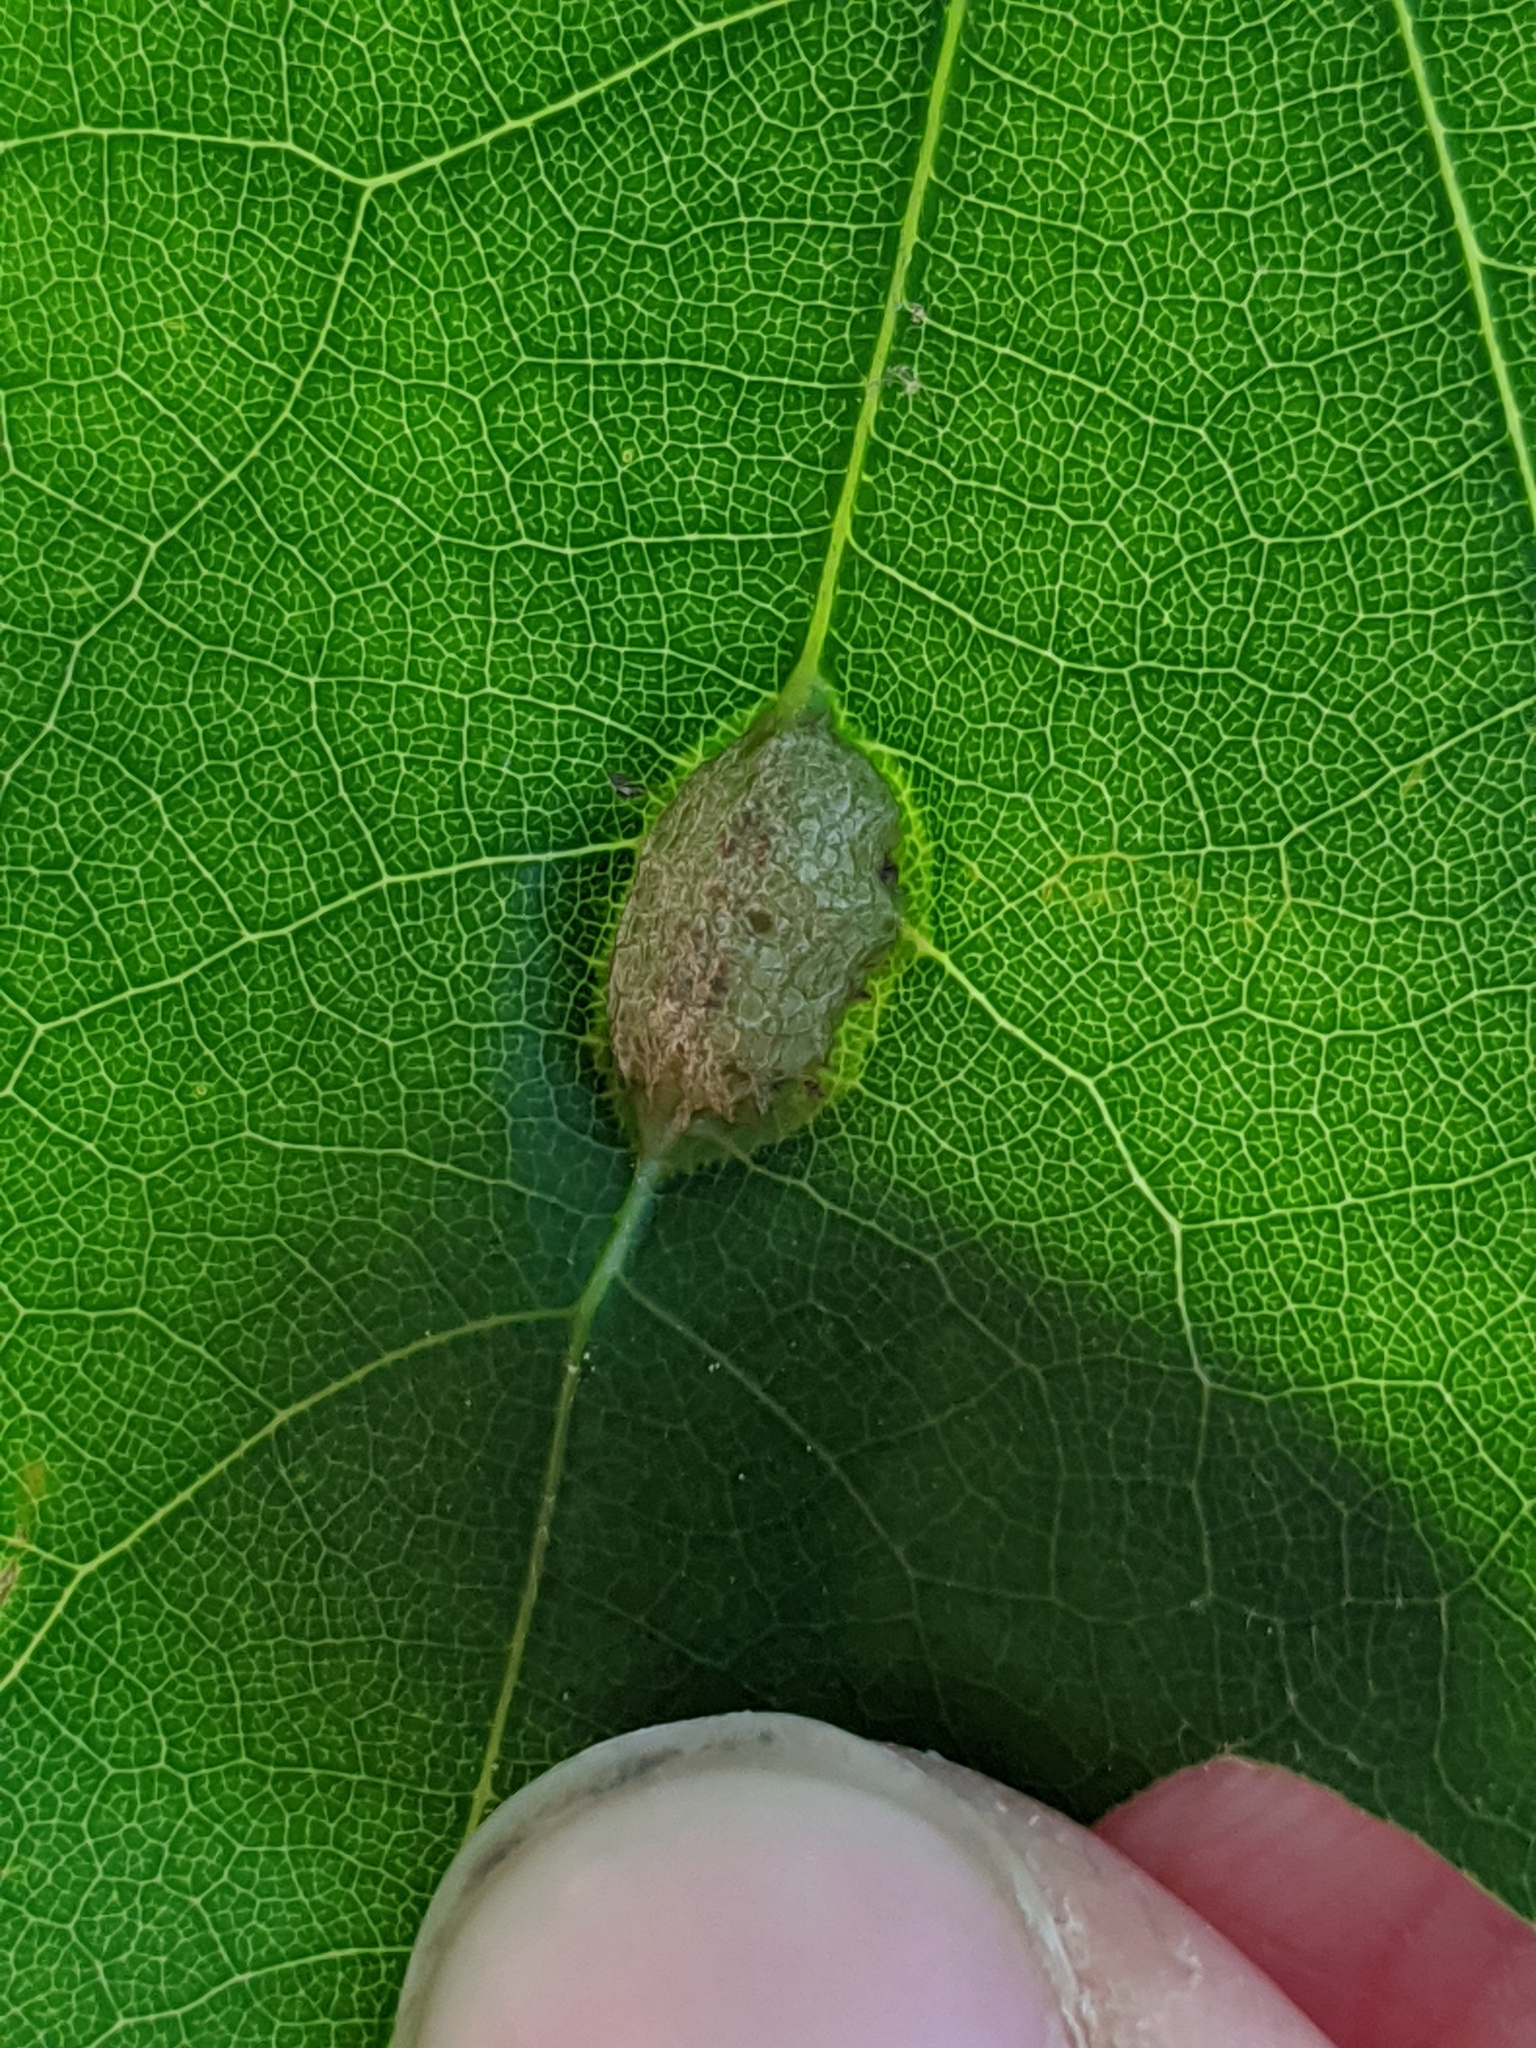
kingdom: Animalia
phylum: Arthropoda
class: Insecta
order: Diptera
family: Cecidomyiidae
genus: Polystepha
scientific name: Polystepha pilulae
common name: Oak leaf gall midge
